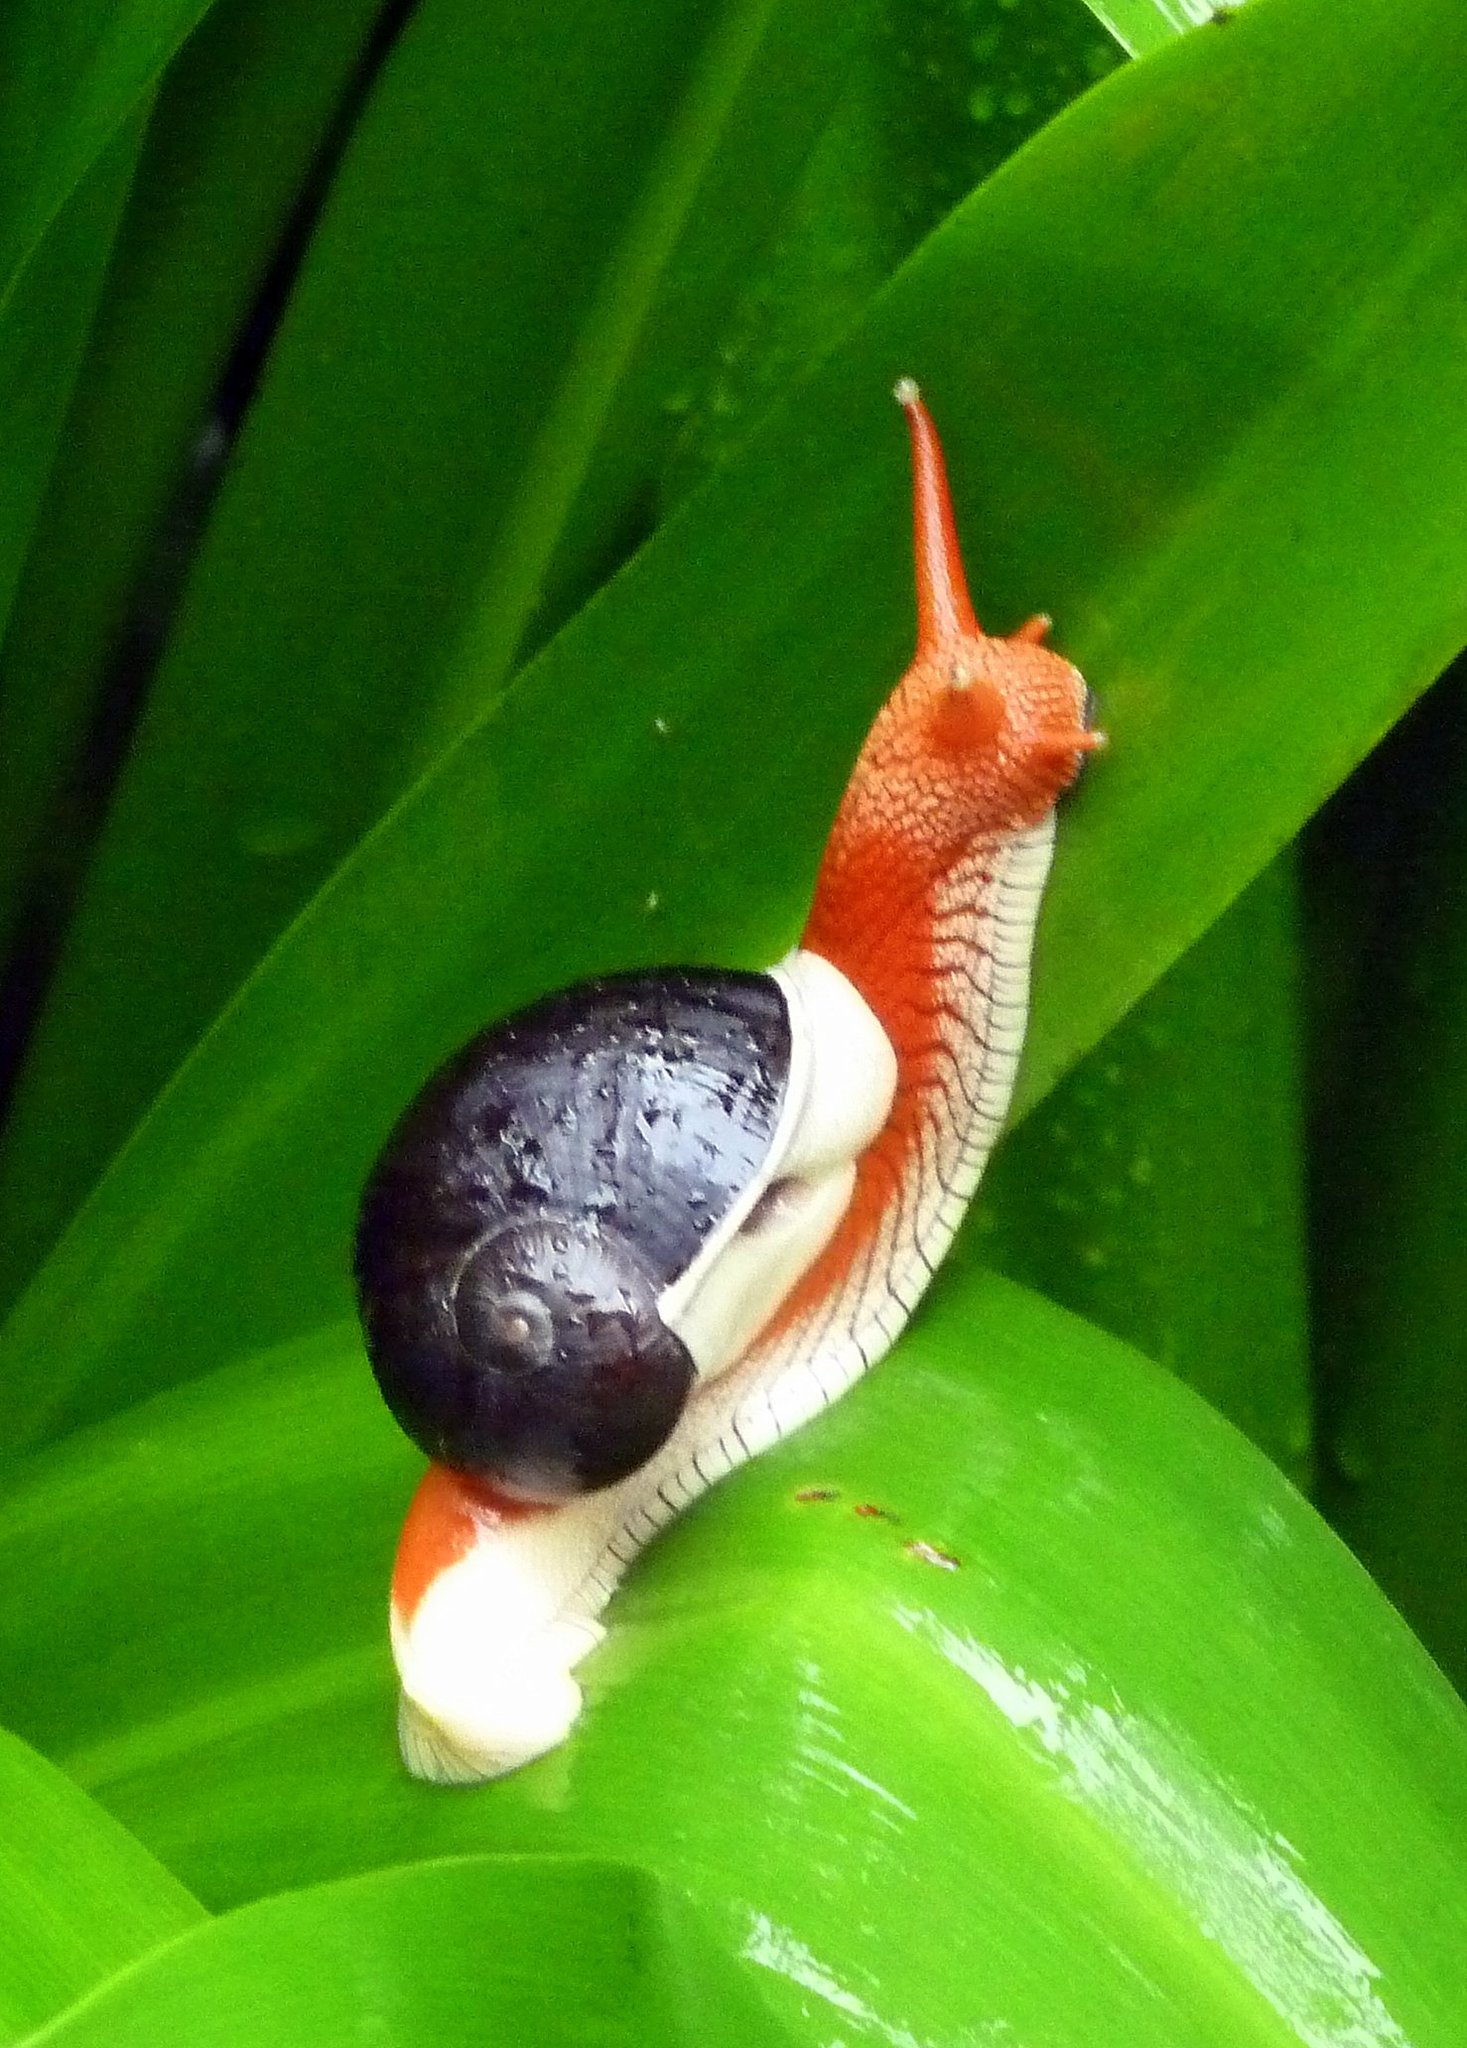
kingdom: Animalia
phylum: Mollusca
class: Gastropoda
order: Stylommatophora
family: Ariophantidae
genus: Indrella
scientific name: Indrella ampulla
